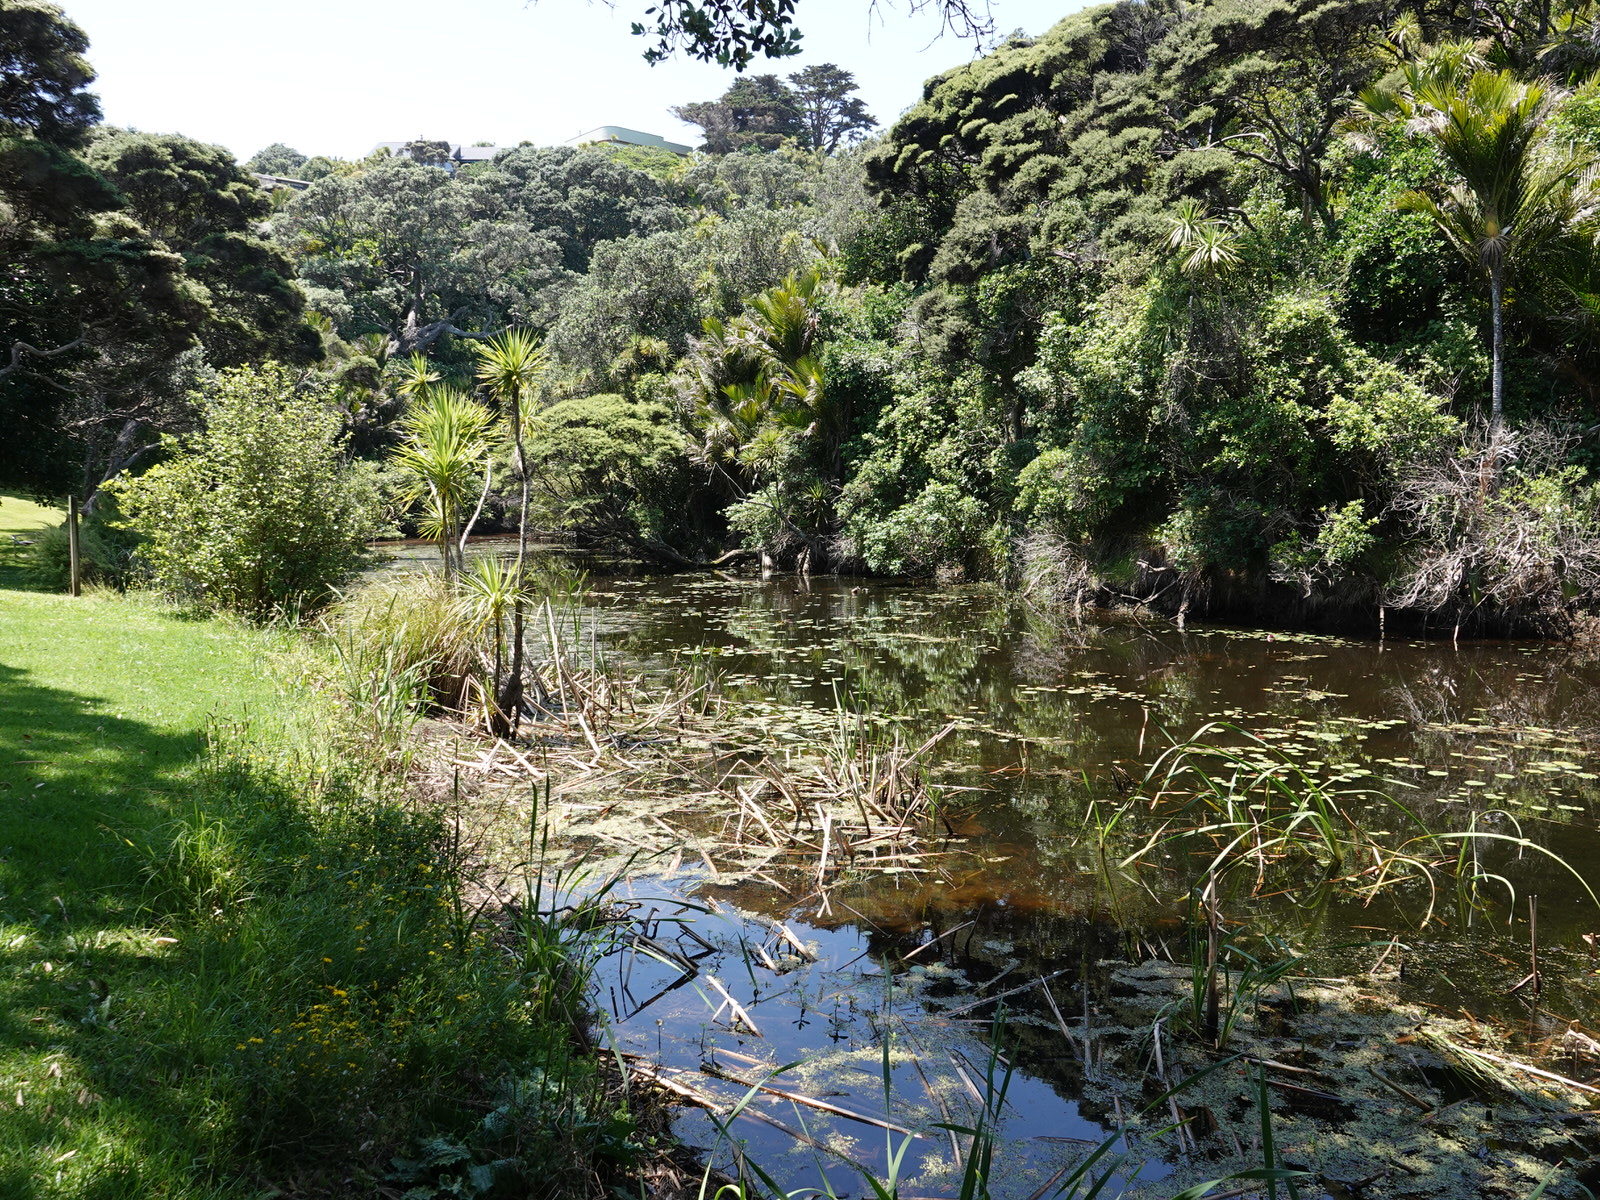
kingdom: Plantae
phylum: Tracheophyta
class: Magnoliopsida
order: Saxifragales
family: Haloragaceae
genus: Myriophyllum
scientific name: Myriophyllum aquaticum
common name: Parrot's feather
